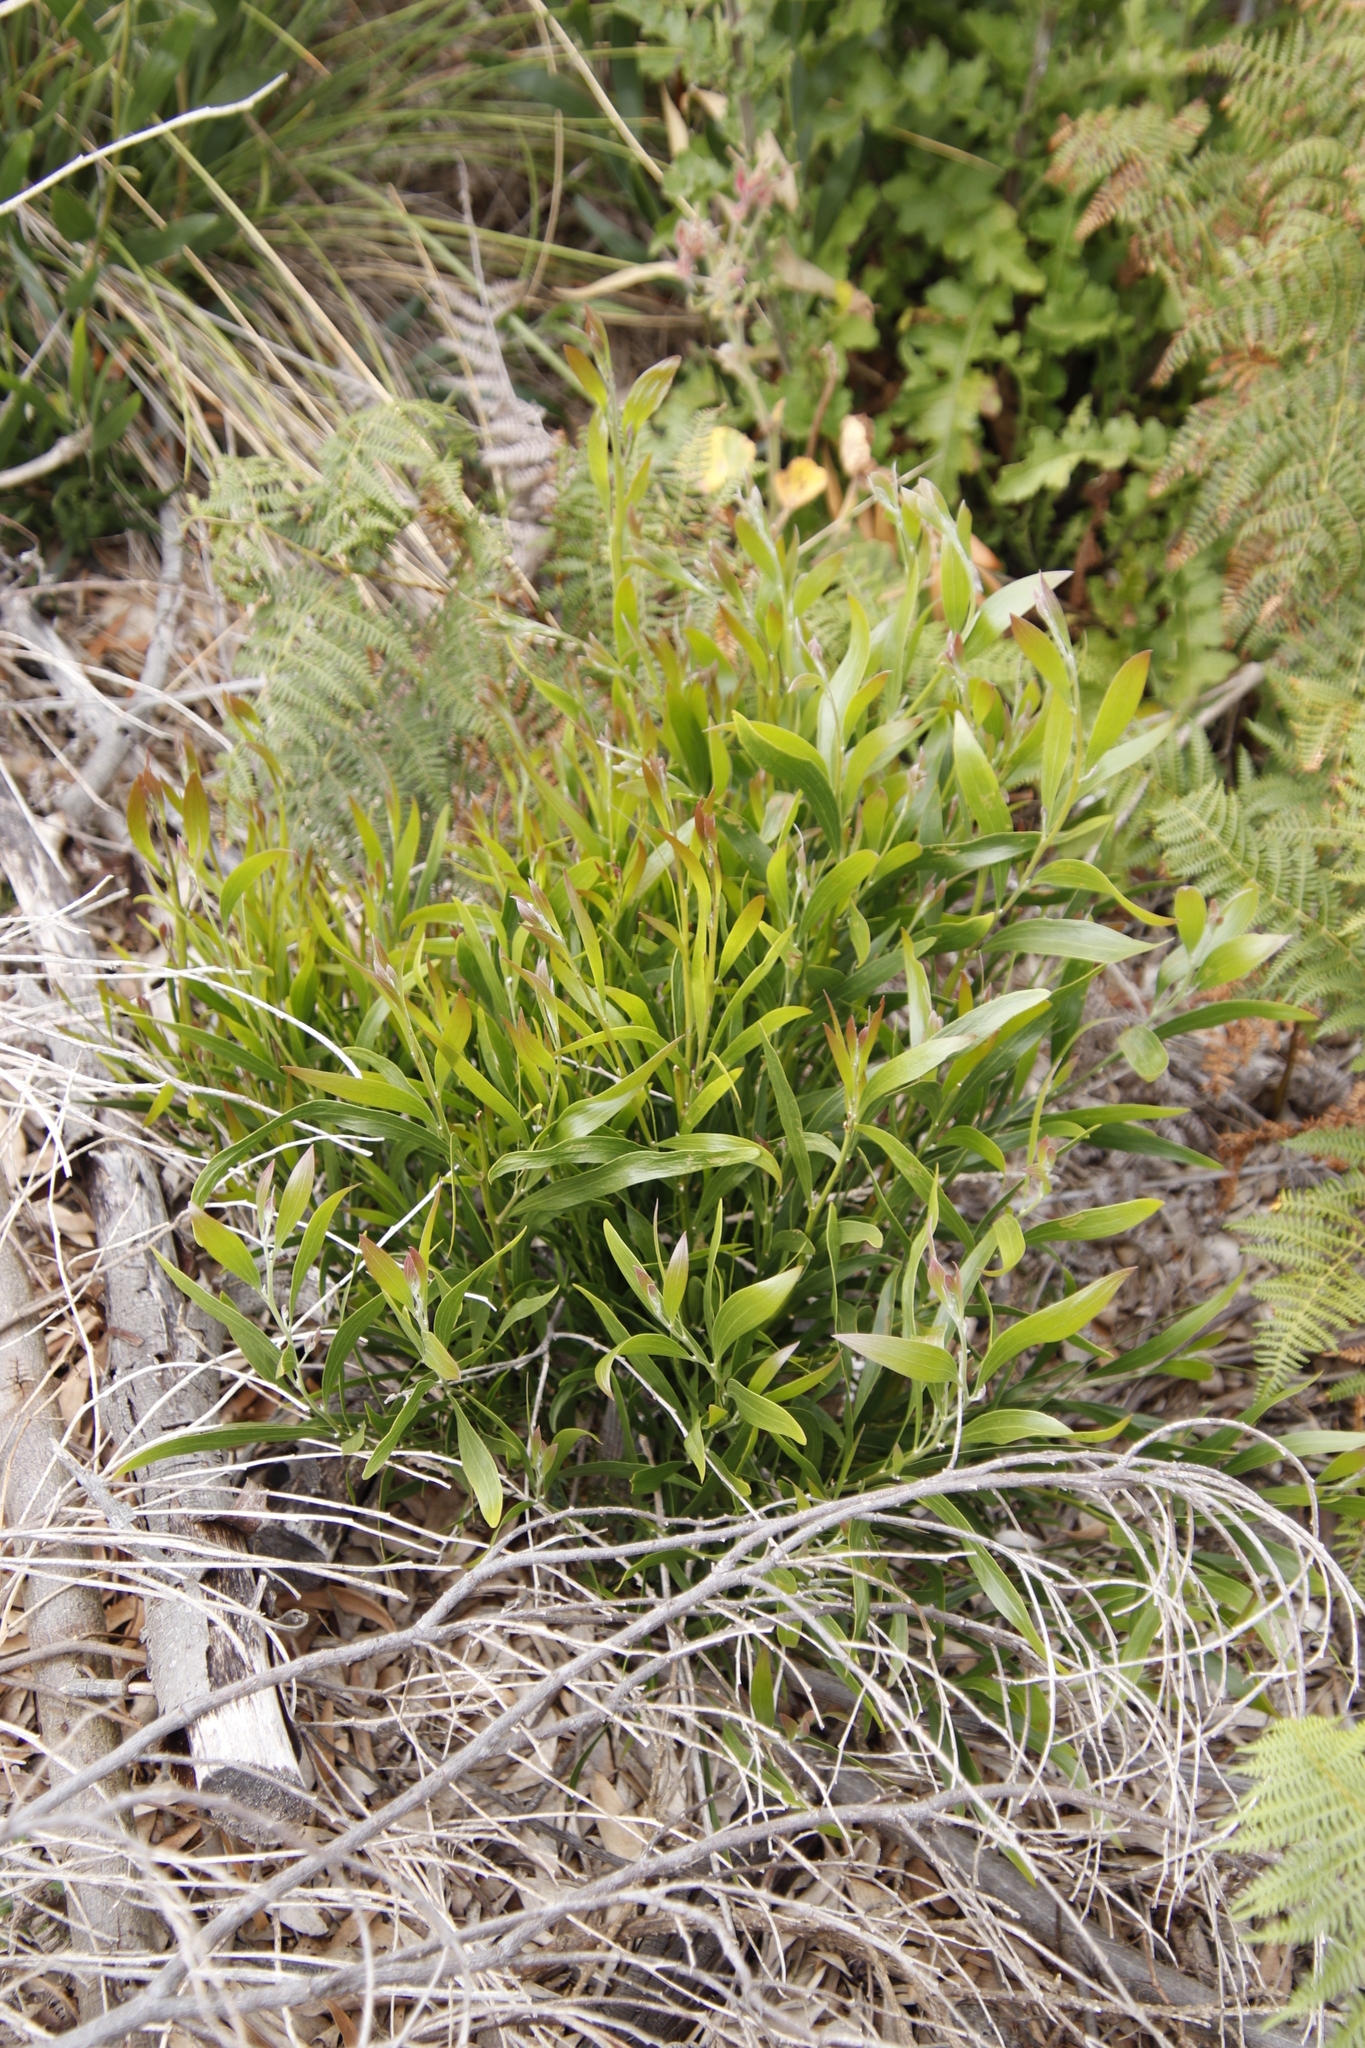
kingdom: Plantae
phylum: Tracheophyta
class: Magnoliopsida
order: Fabales
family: Fabaceae
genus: Acacia
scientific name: Acacia melanoxylon
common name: Blackwood
